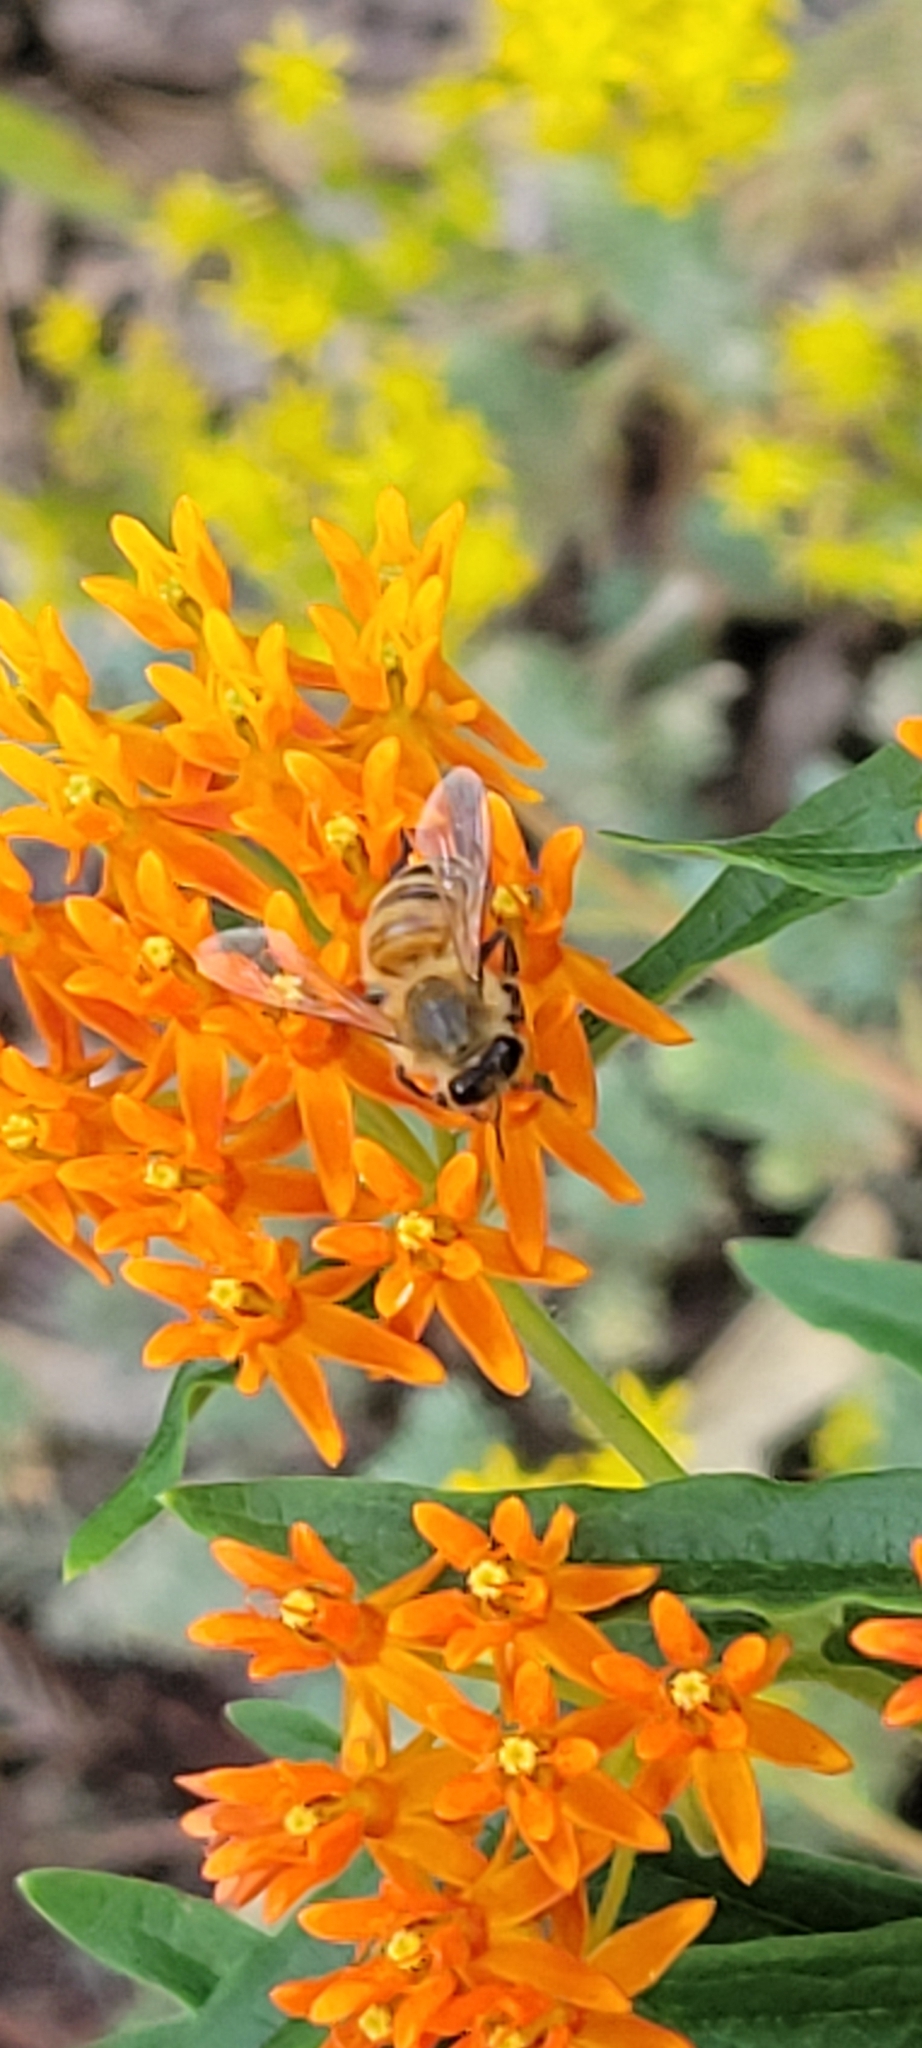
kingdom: Animalia
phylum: Arthropoda
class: Insecta
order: Hymenoptera
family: Apidae
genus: Apis
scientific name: Apis mellifera
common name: Honey bee
